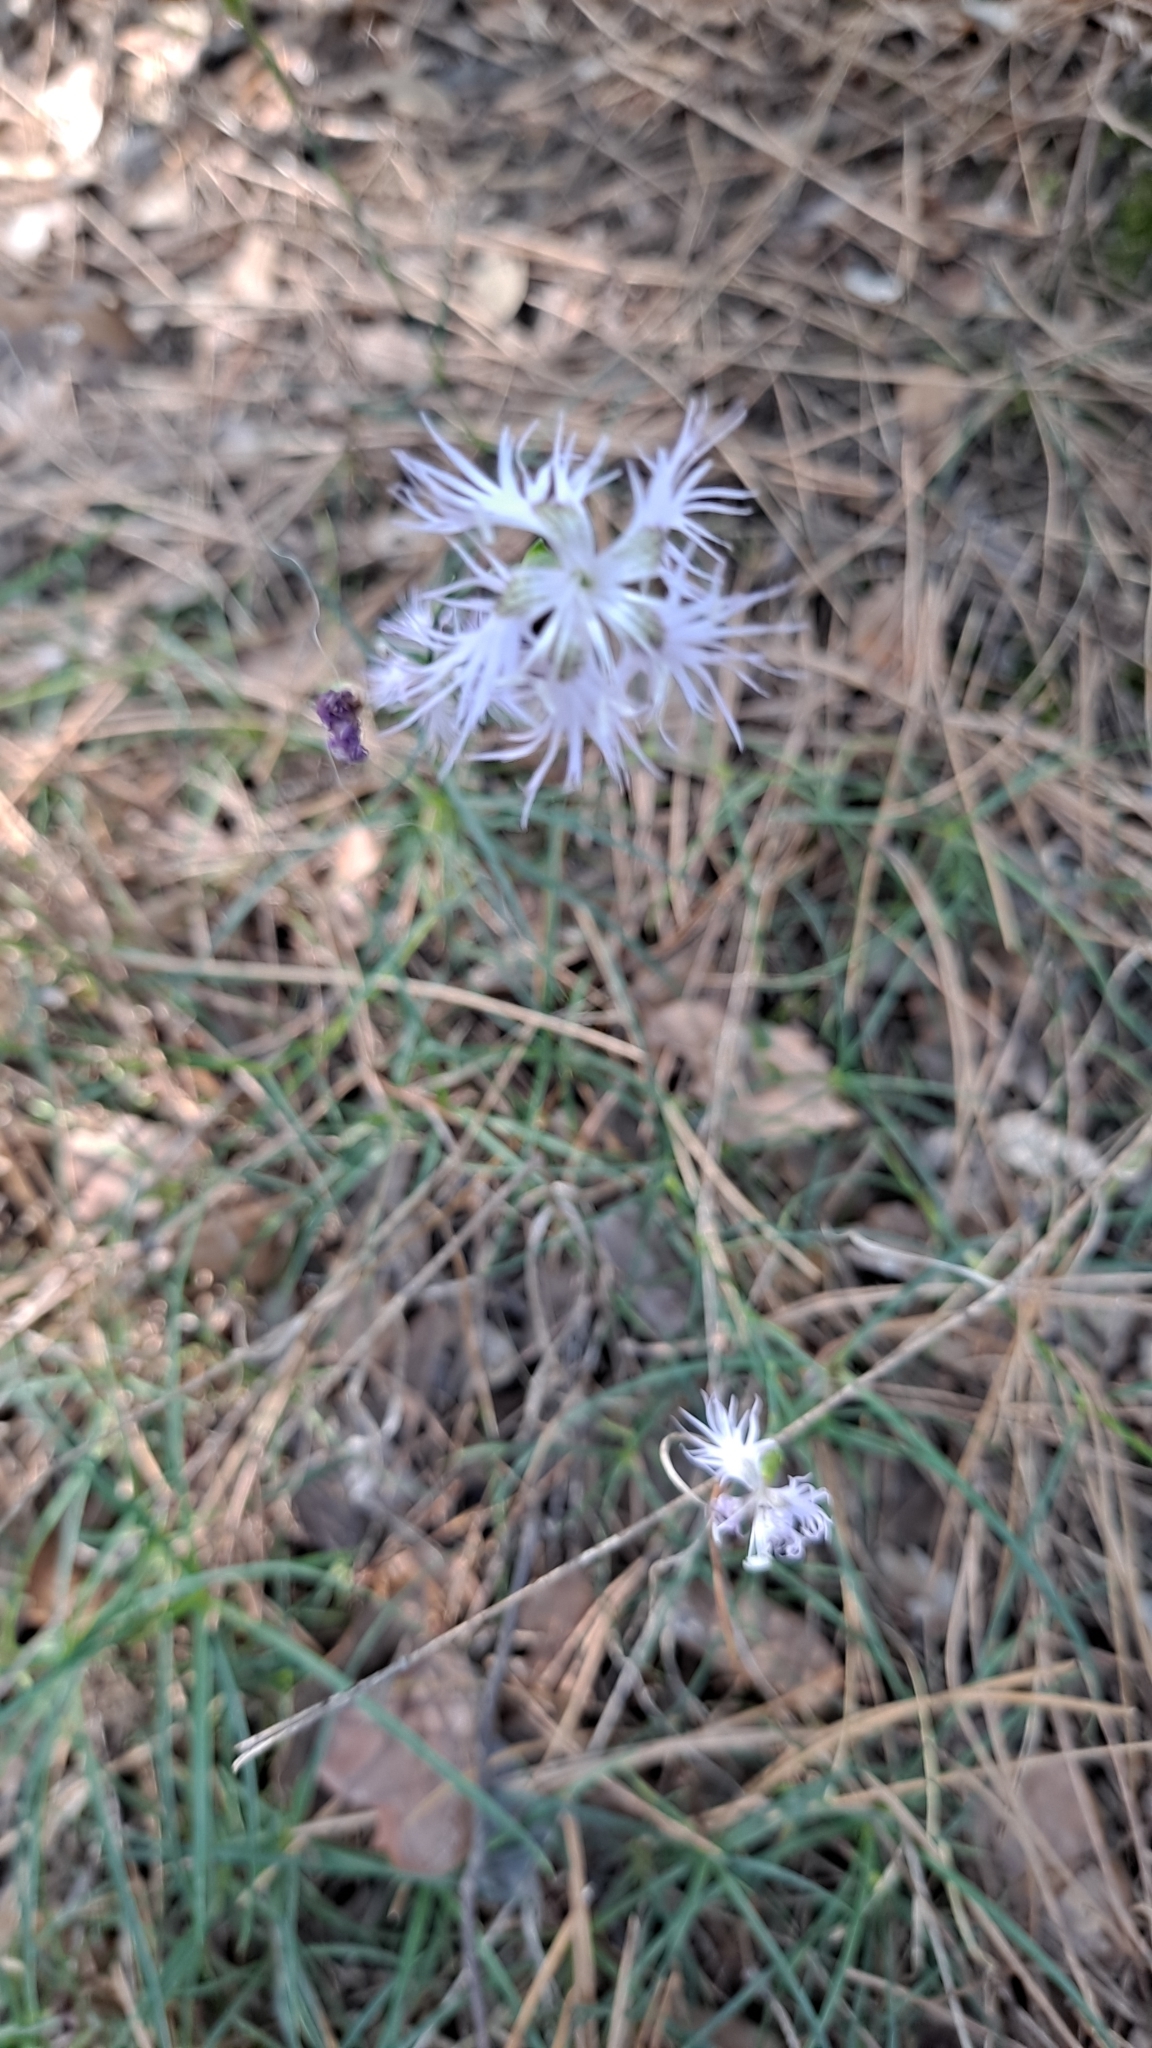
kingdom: Plantae
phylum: Tracheophyta
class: Magnoliopsida
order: Caryophyllales
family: Caryophyllaceae
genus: Dianthus
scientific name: Dianthus hyssopifolius
